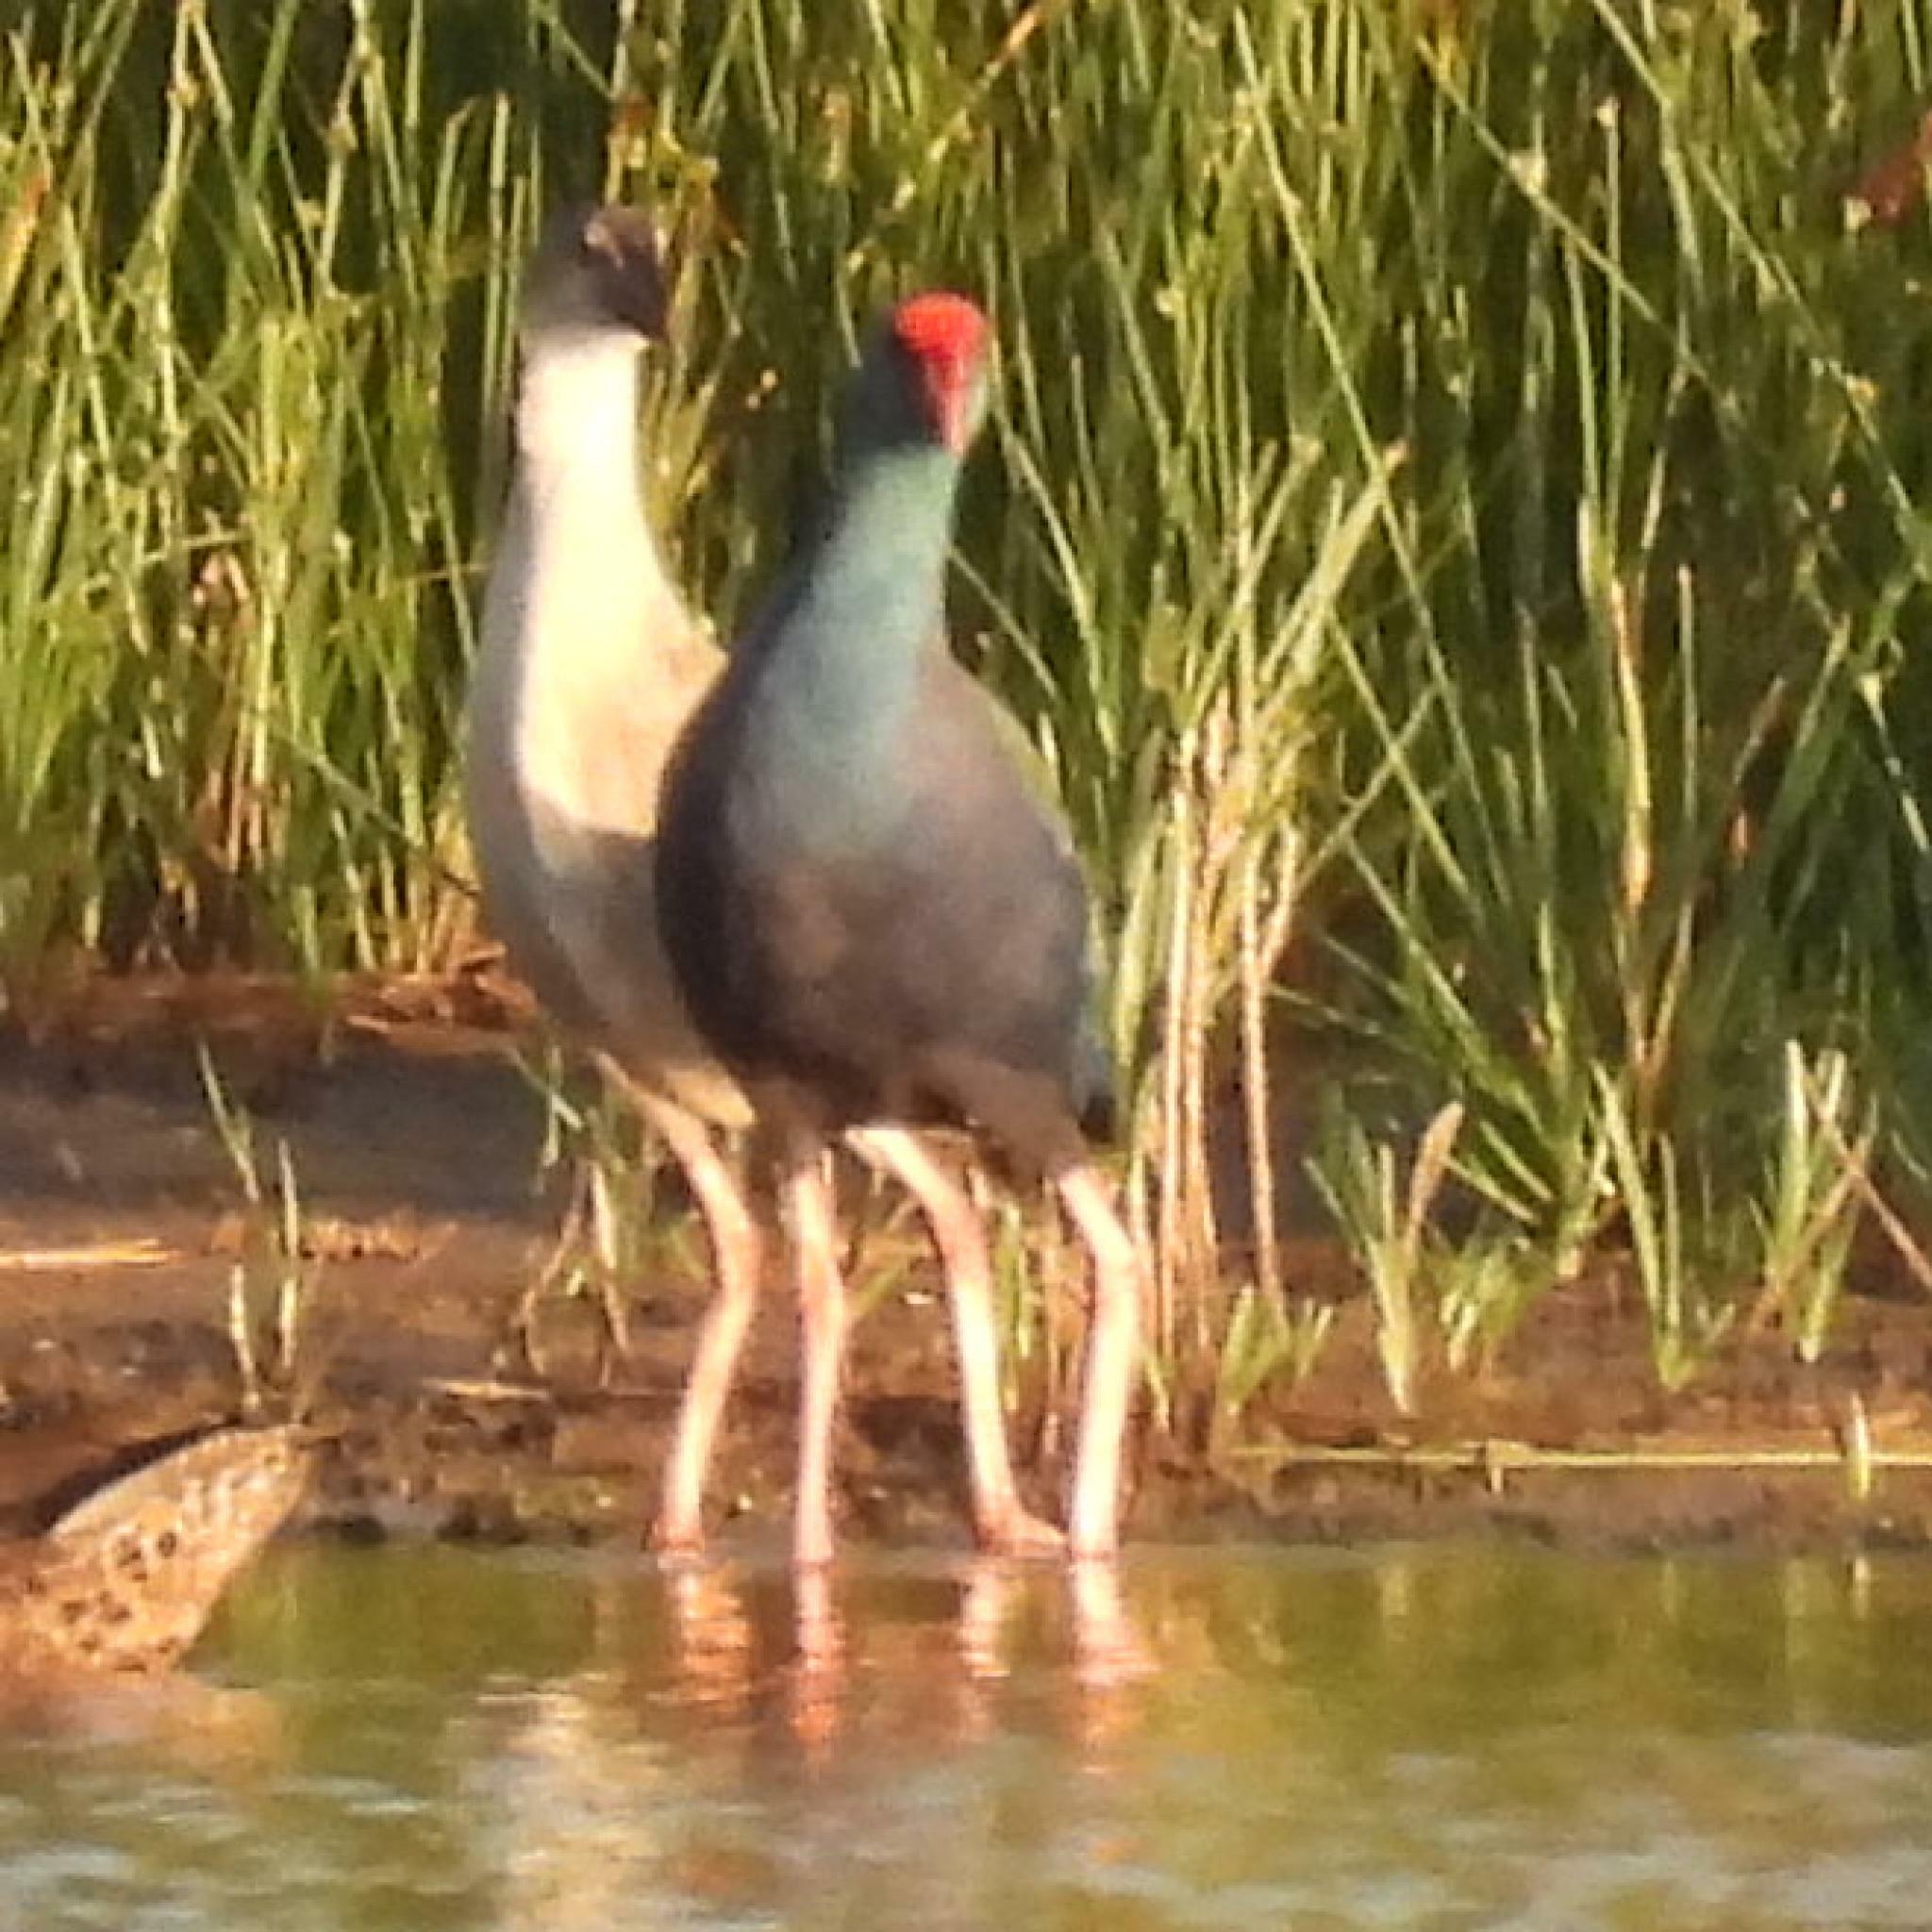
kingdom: Animalia
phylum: Chordata
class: Aves
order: Gruiformes
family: Rallidae
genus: Porphyrio
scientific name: Porphyrio porphyrio
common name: Purple swamphen
